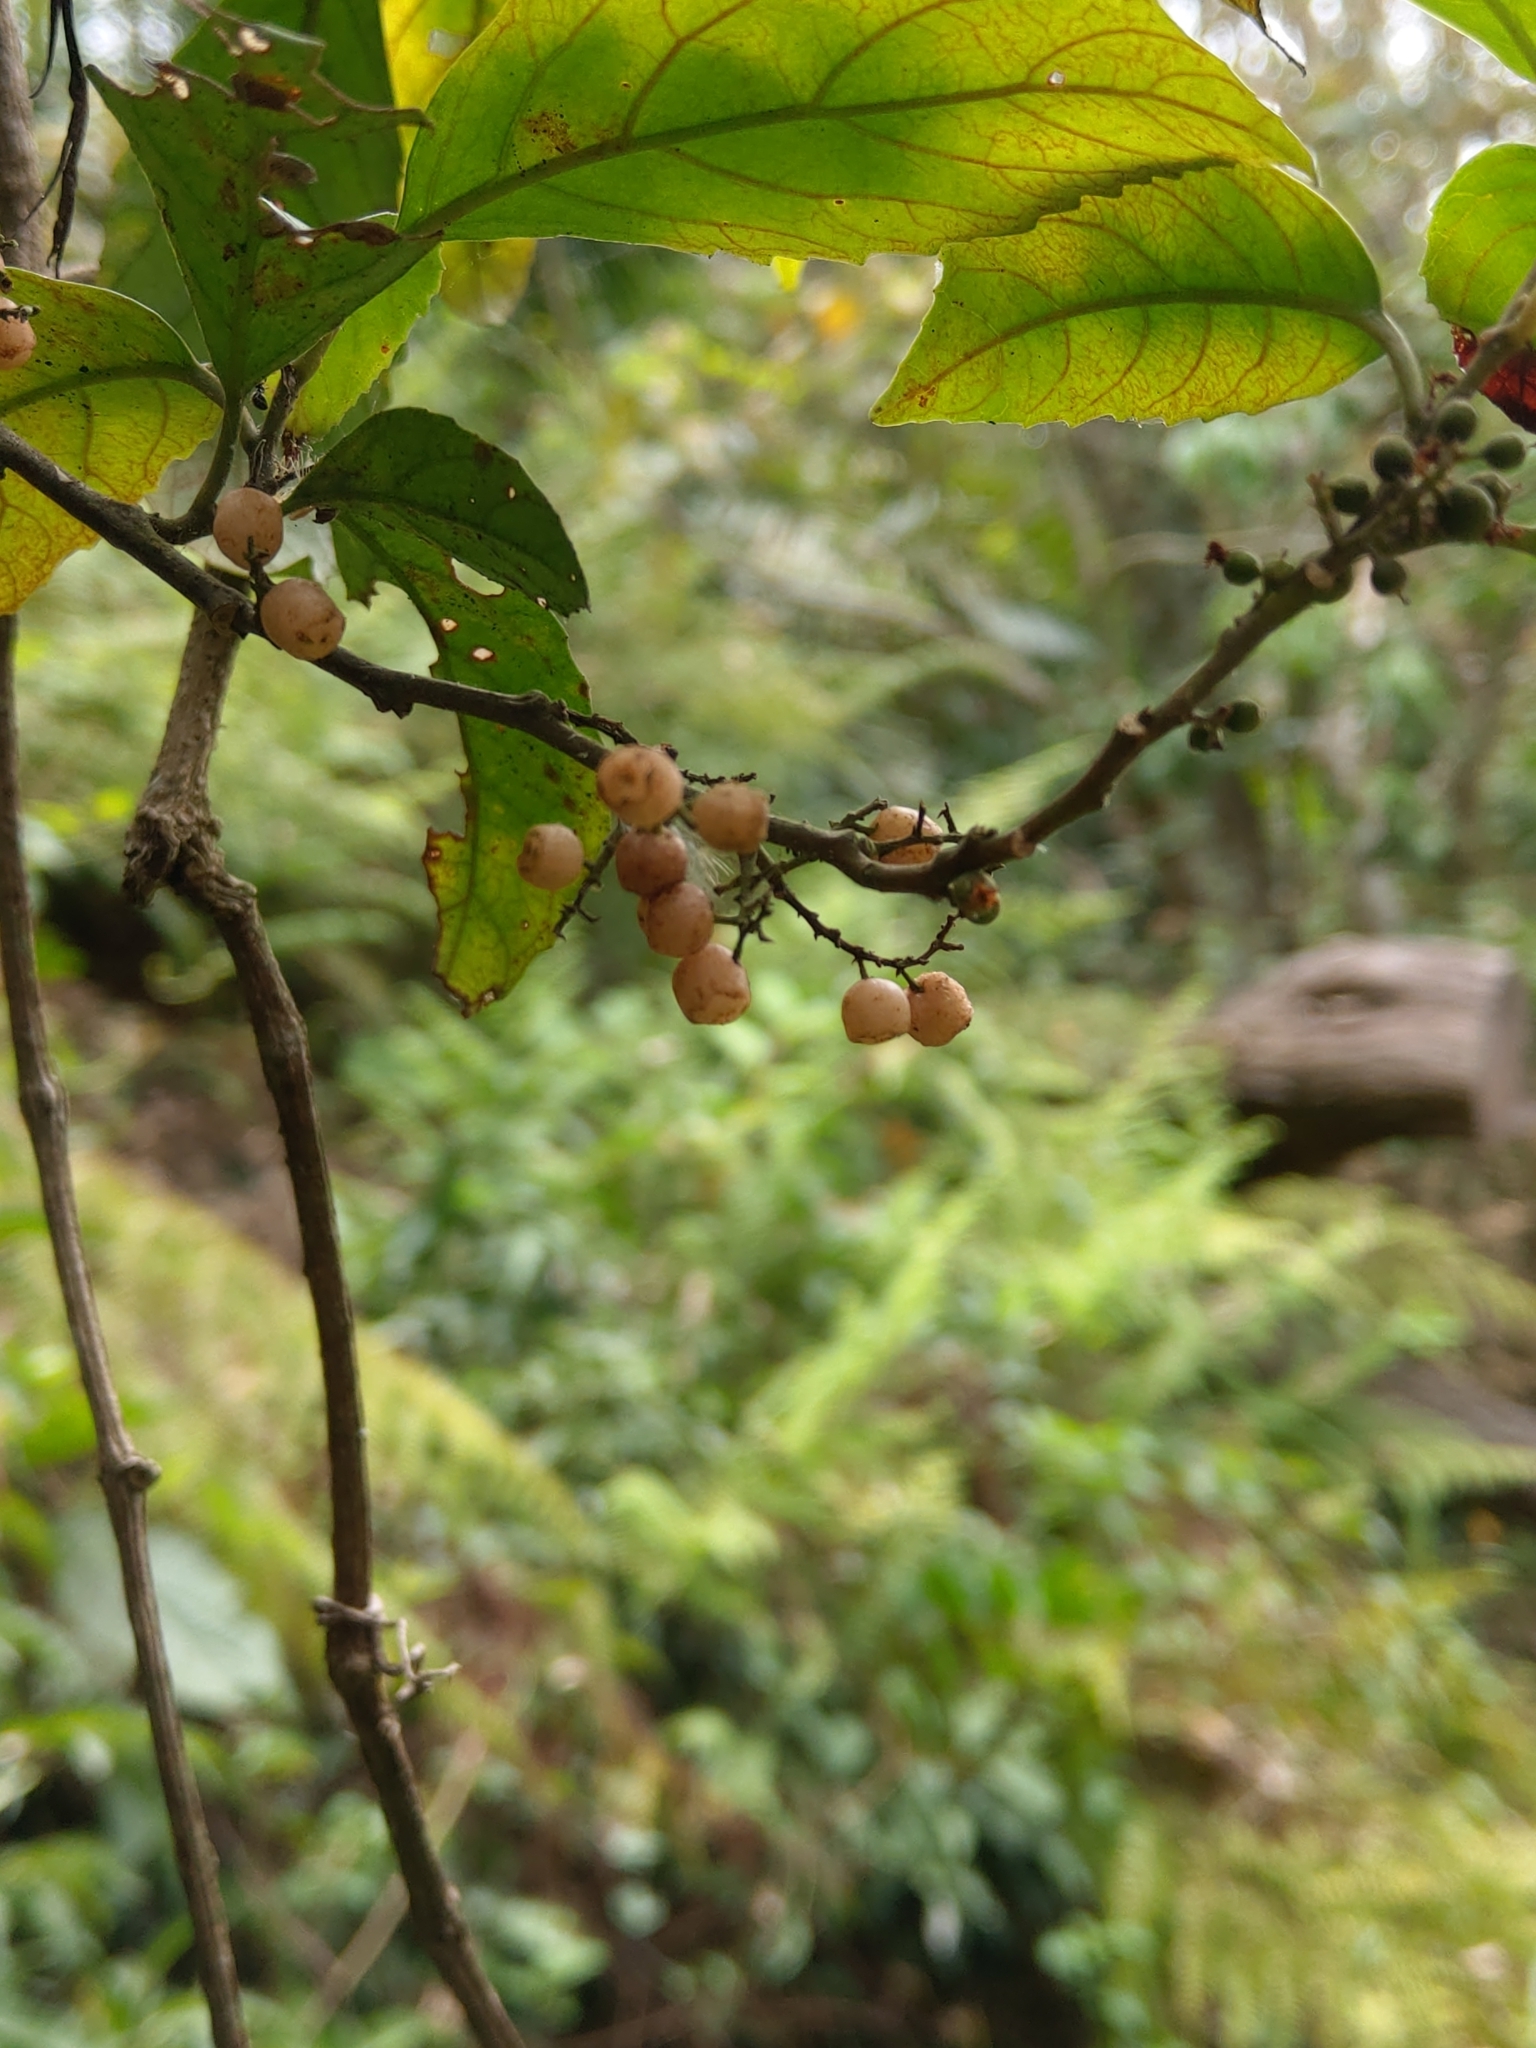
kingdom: Plantae
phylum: Tracheophyta
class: Magnoliopsida
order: Ericales
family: Primulaceae
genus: Maesa
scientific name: Maesa perlaria
